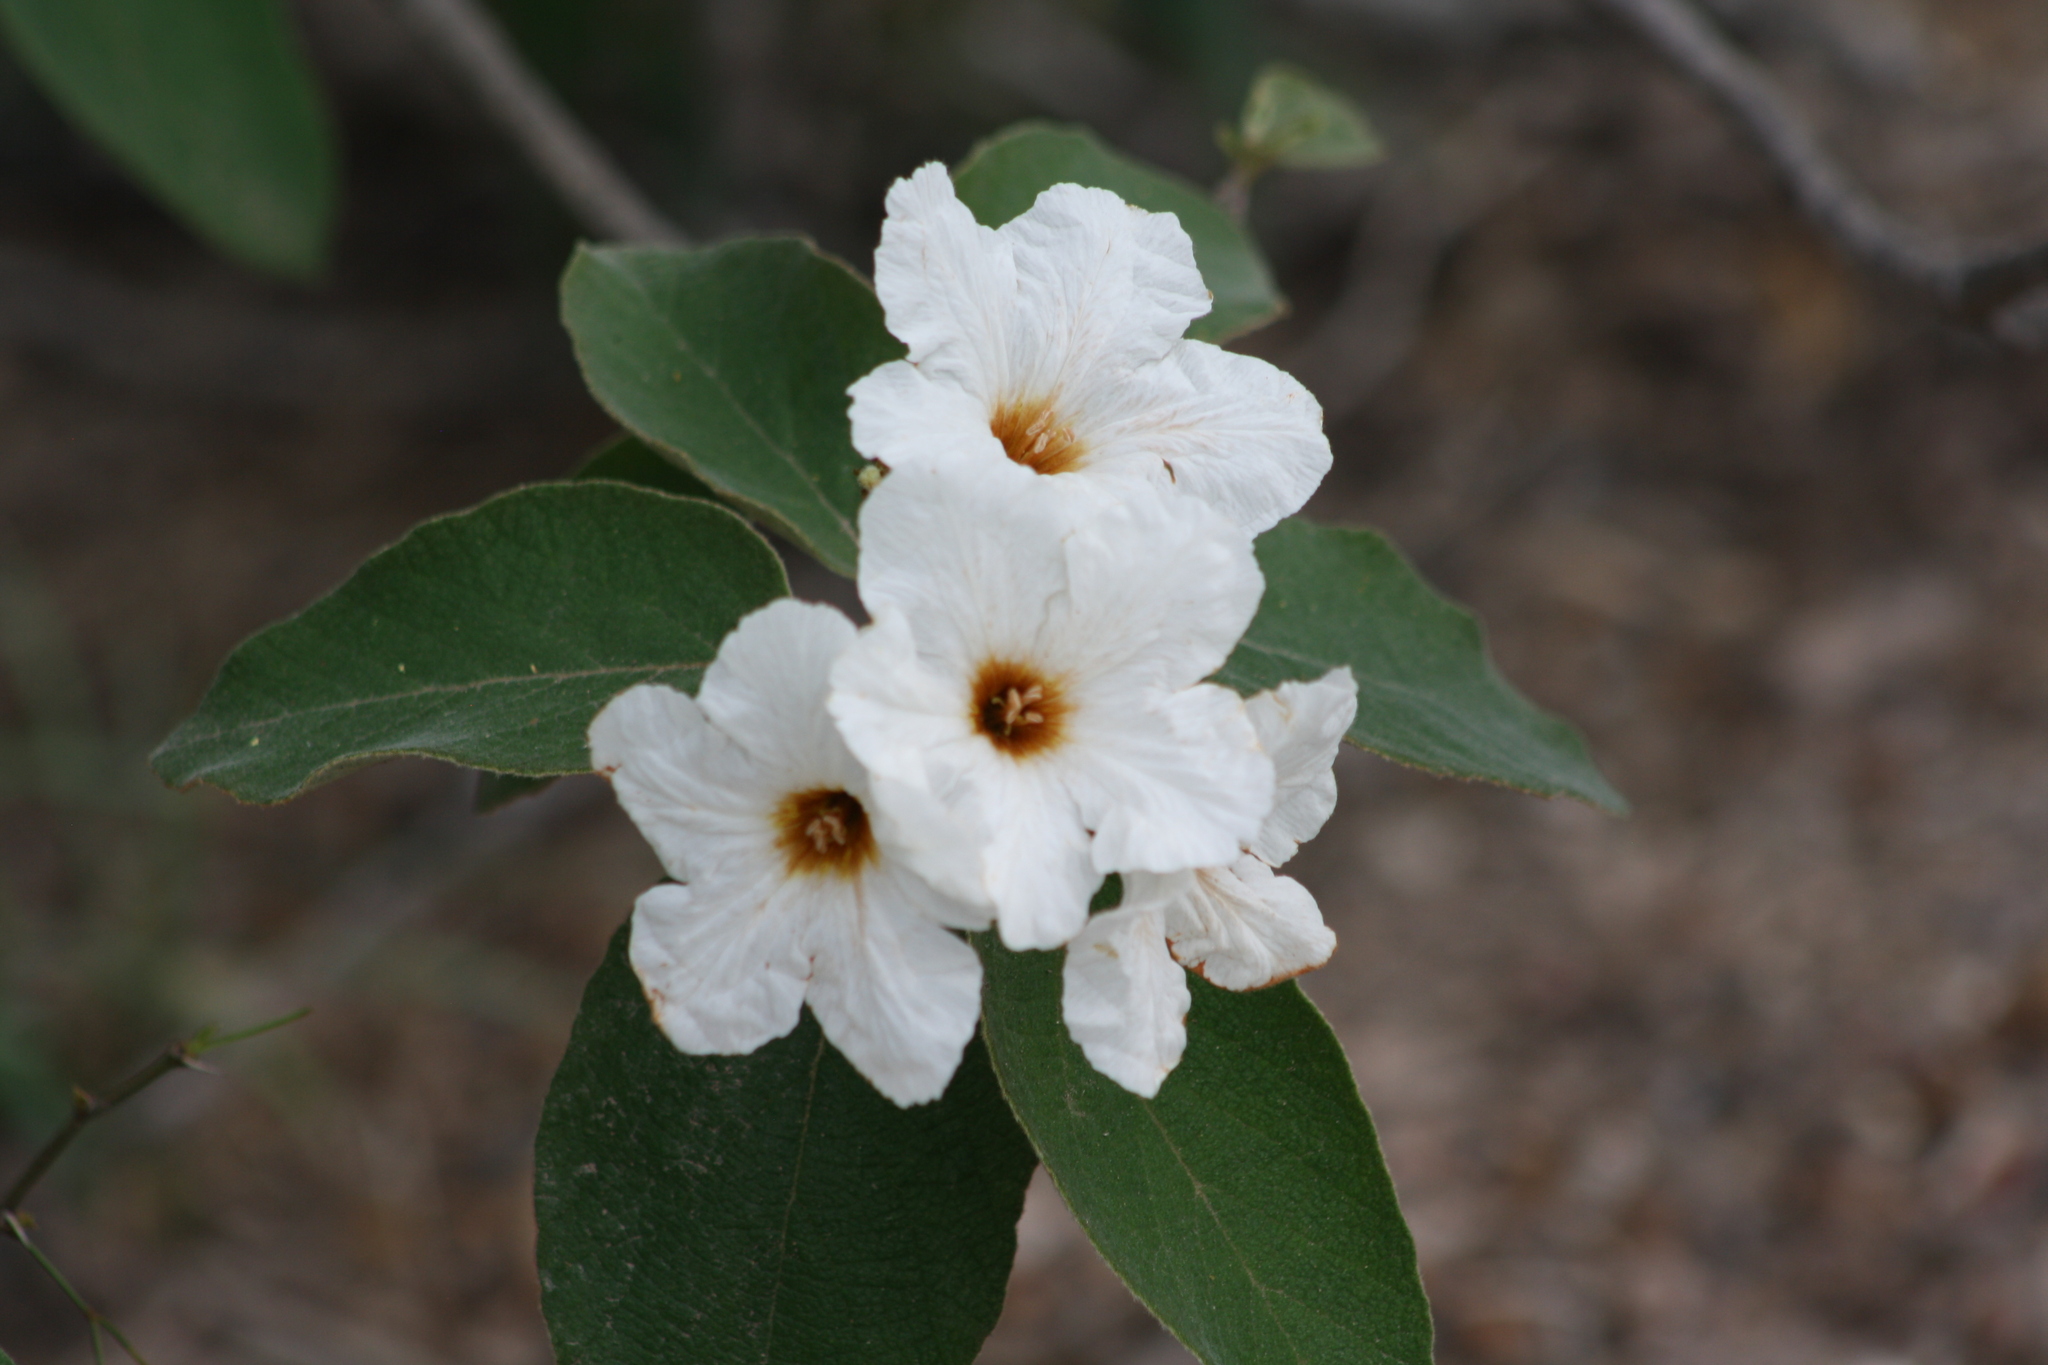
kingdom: Plantae
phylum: Tracheophyta
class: Magnoliopsida
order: Boraginales
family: Cordiaceae
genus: Cordia
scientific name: Cordia boissieri
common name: Mexican-olive
